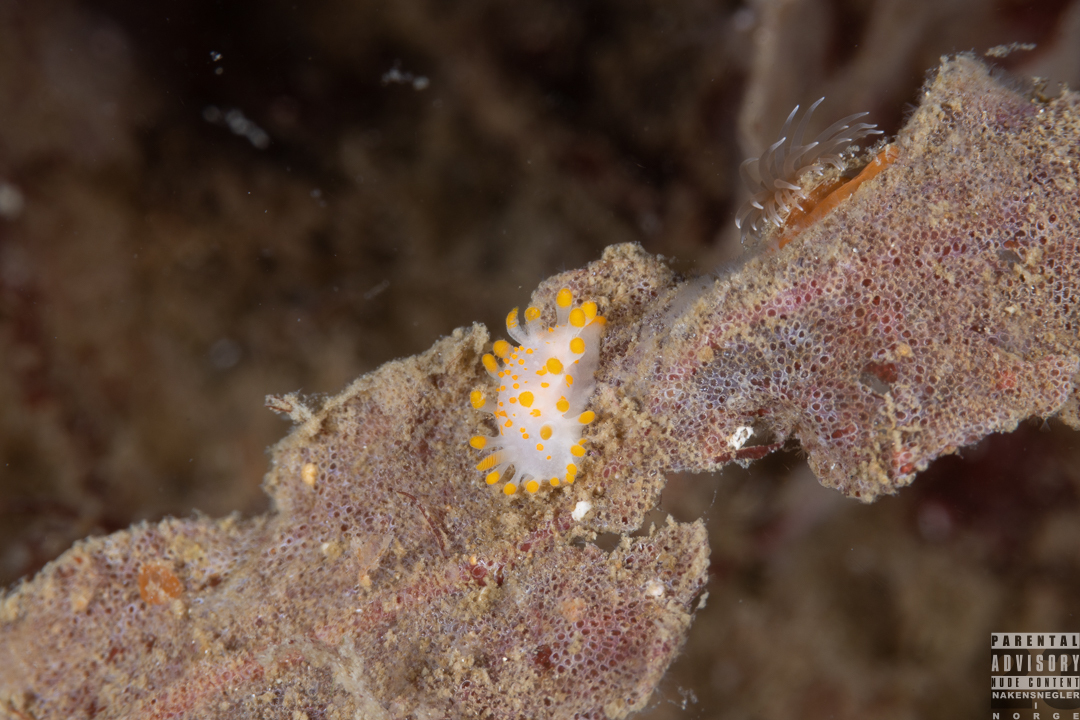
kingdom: Animalia
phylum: Mollusca
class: Gastropoda
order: Nudibranchia
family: Polyceridae
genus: Limacia
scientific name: Limacia clavigera
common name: Orange-clubbed sea slug
